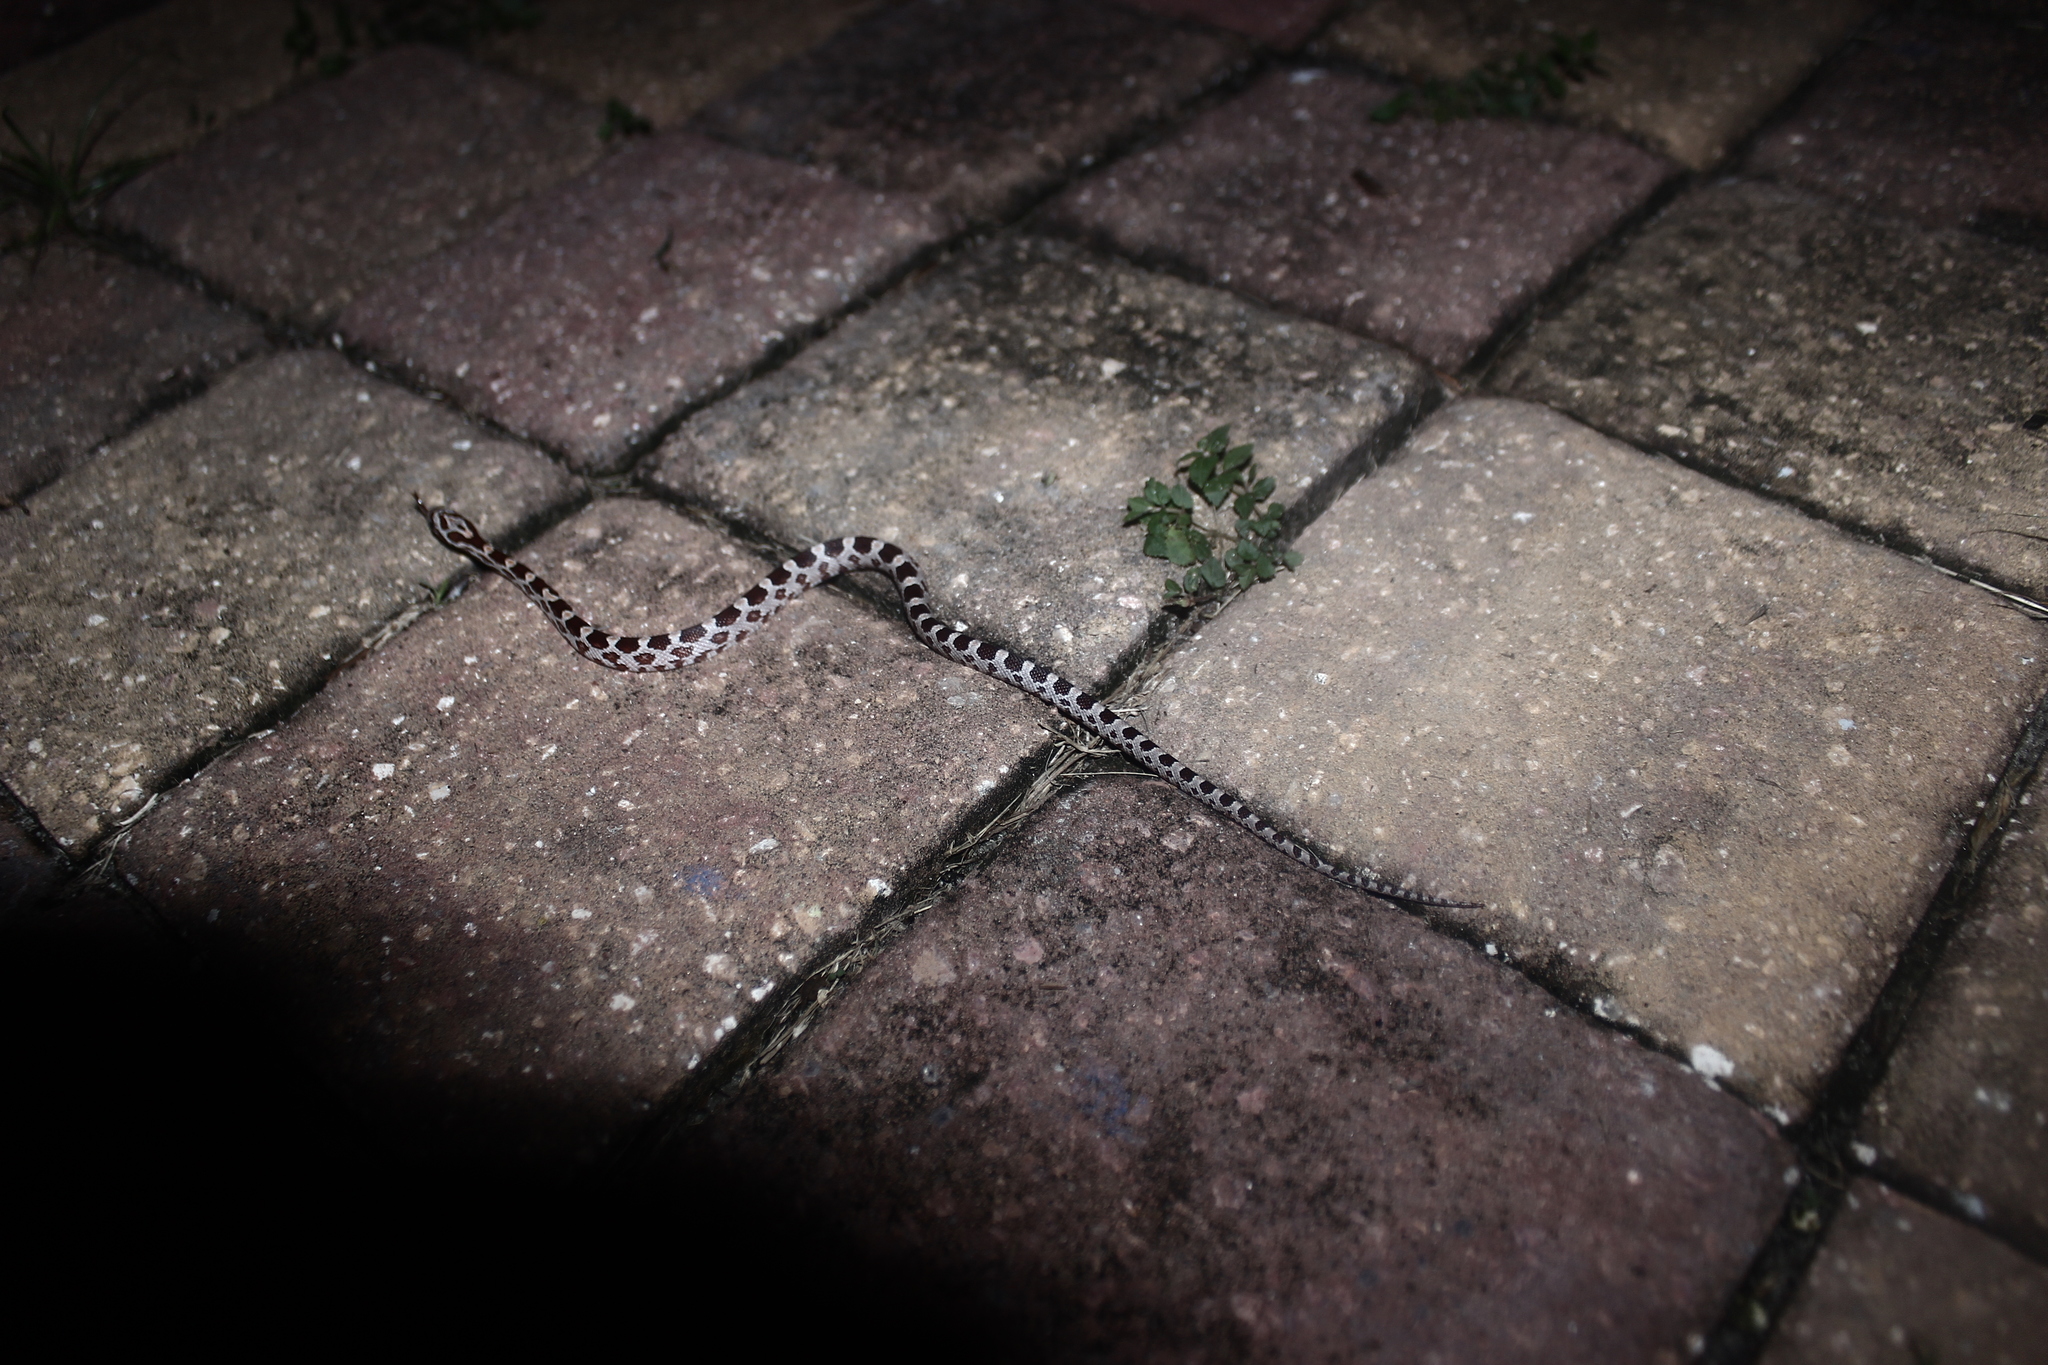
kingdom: Animalia
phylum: Chordata
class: Squamata
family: Colubridae
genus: Pantherophis
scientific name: Pantherophis guttatus
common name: Red cornsnake
